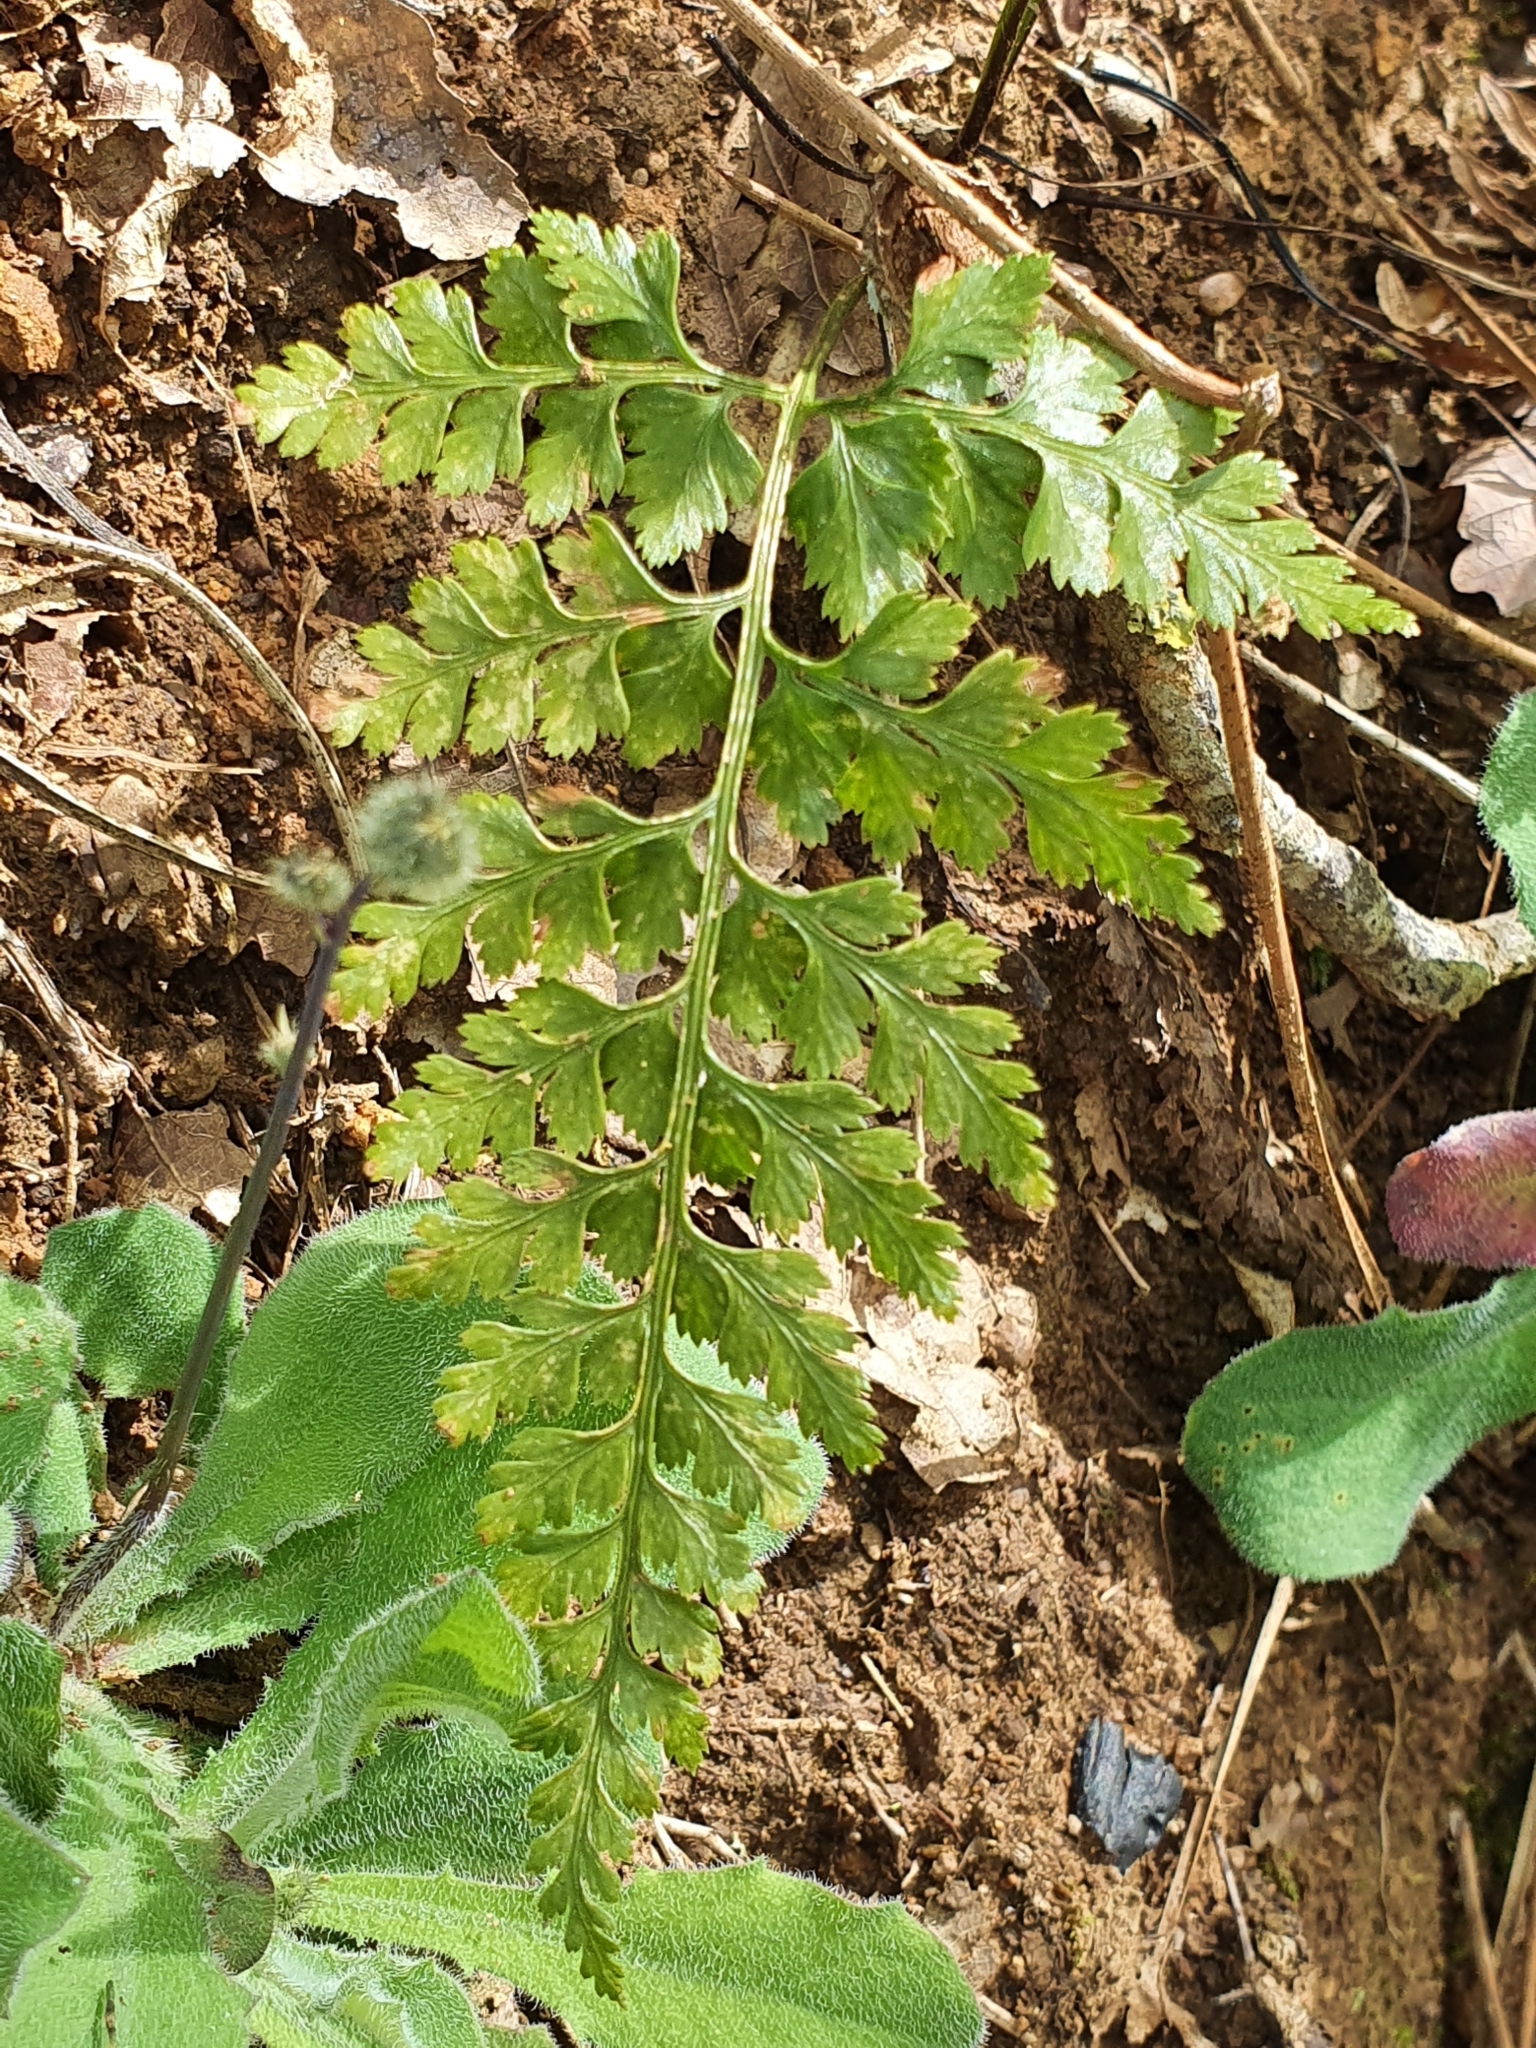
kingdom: Plantae
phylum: Tracheophyta
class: Polypodiopsida
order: Polypodiales
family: Aspleniaceae
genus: Asplenium
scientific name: Asplenium onopteris
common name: Irish spleenwort
